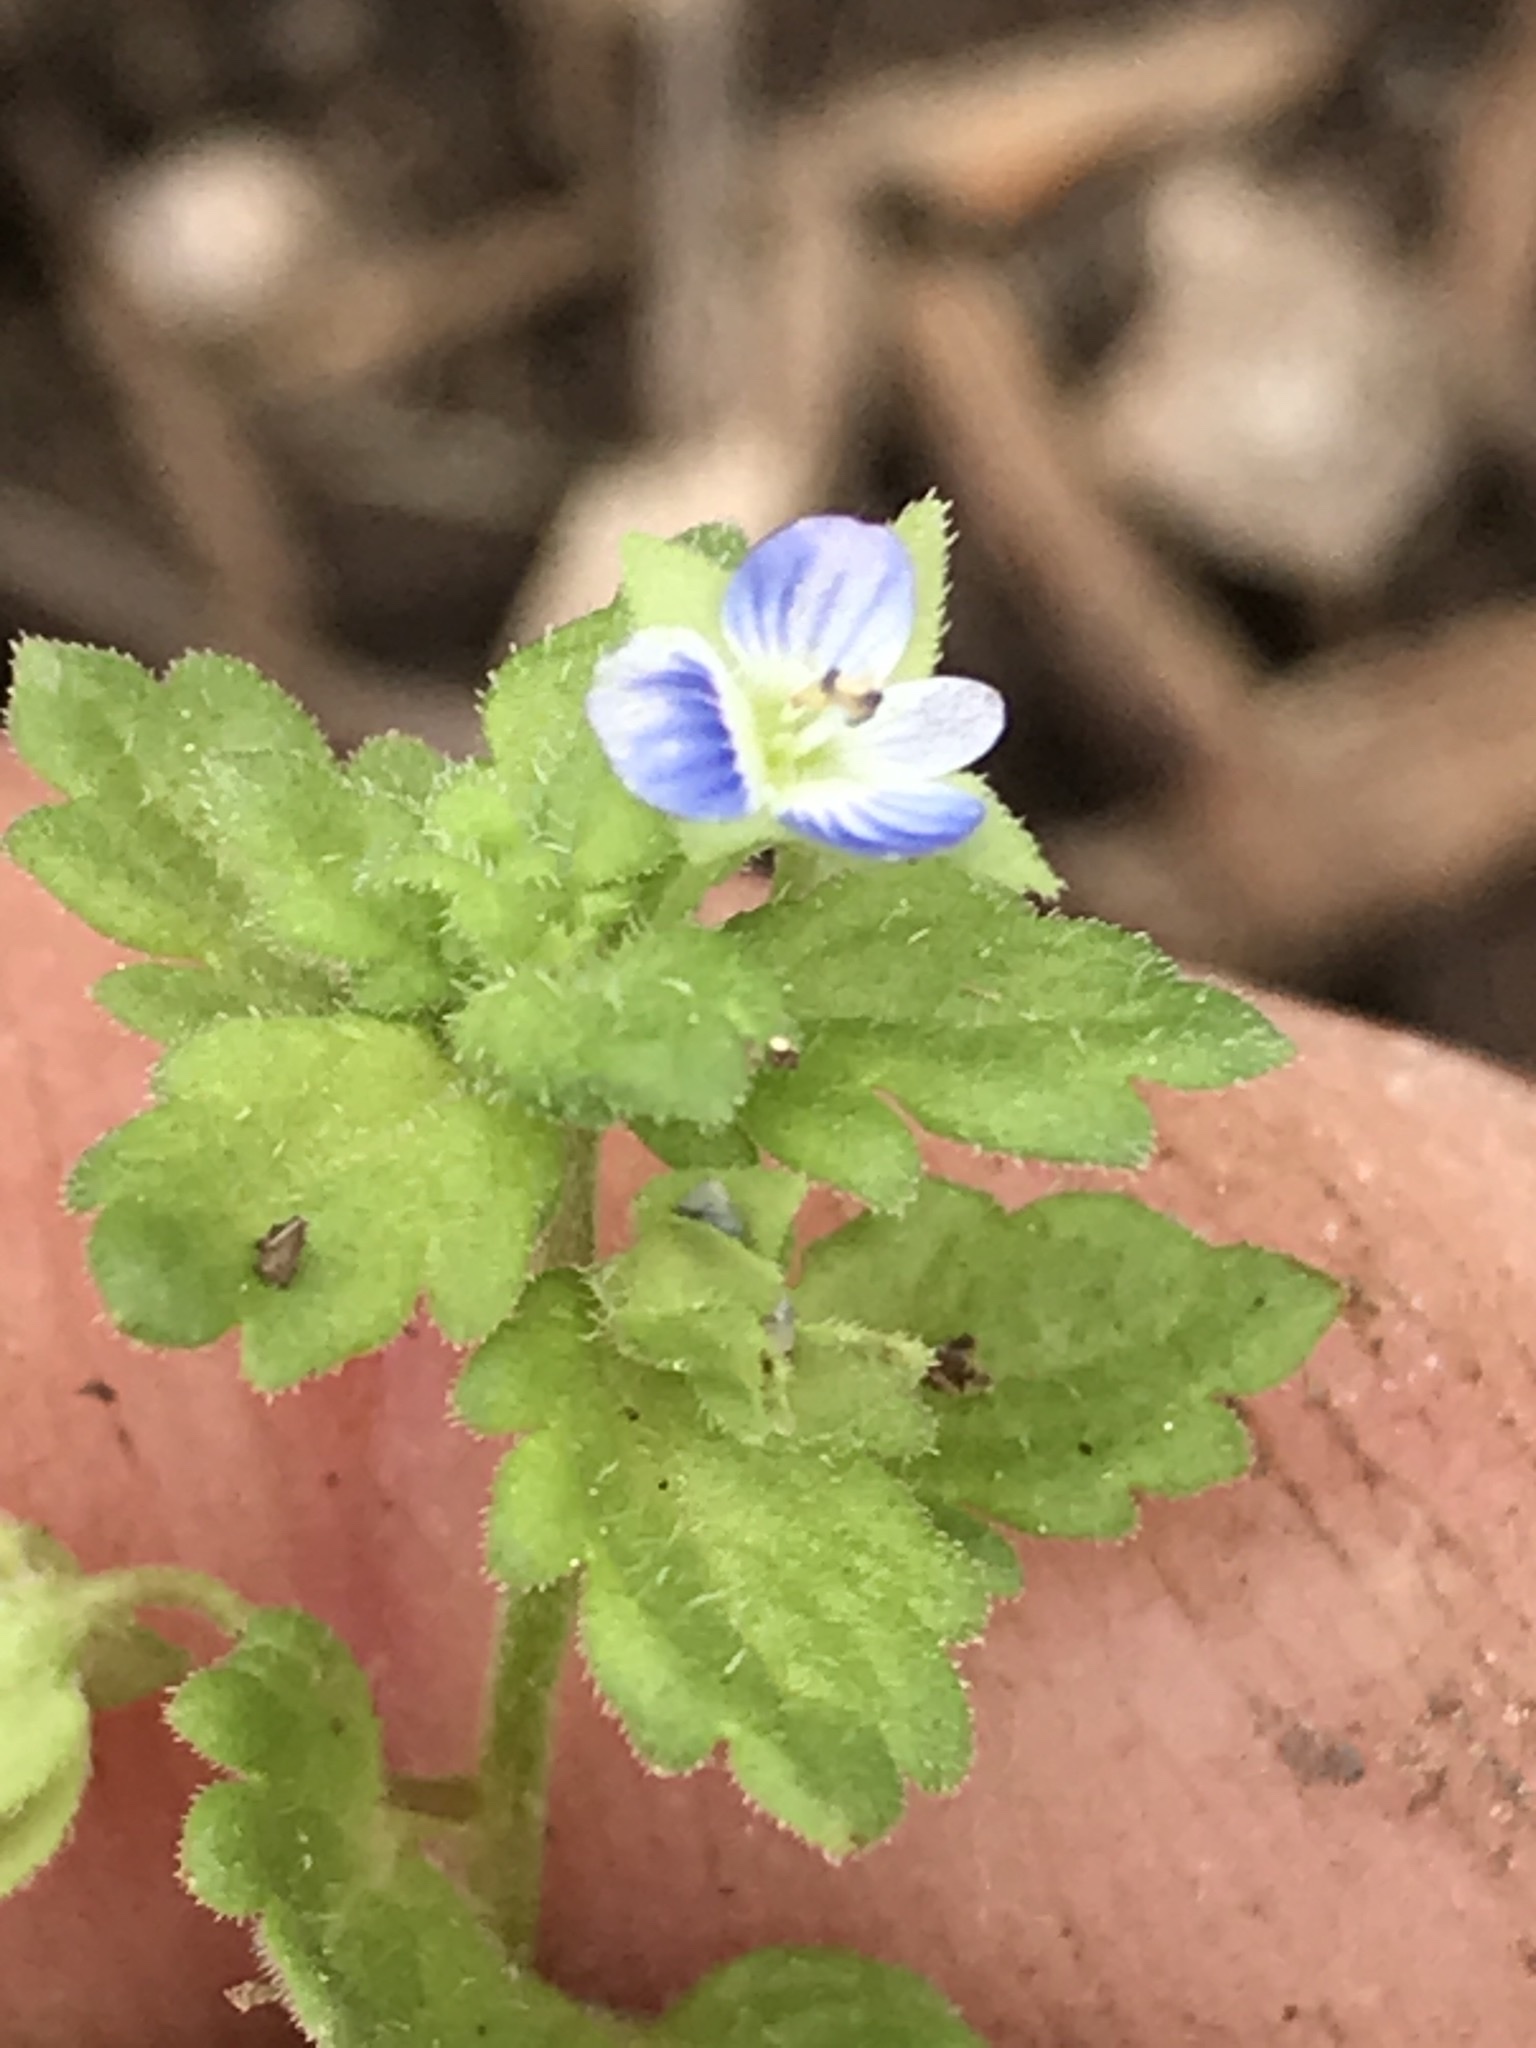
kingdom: Plantae
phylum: Tracheophyta
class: Magnoliopsida
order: Lamiales
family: Plantaginaceae
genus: Veronica
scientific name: Veronica polita
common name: Grey field-speedwell
